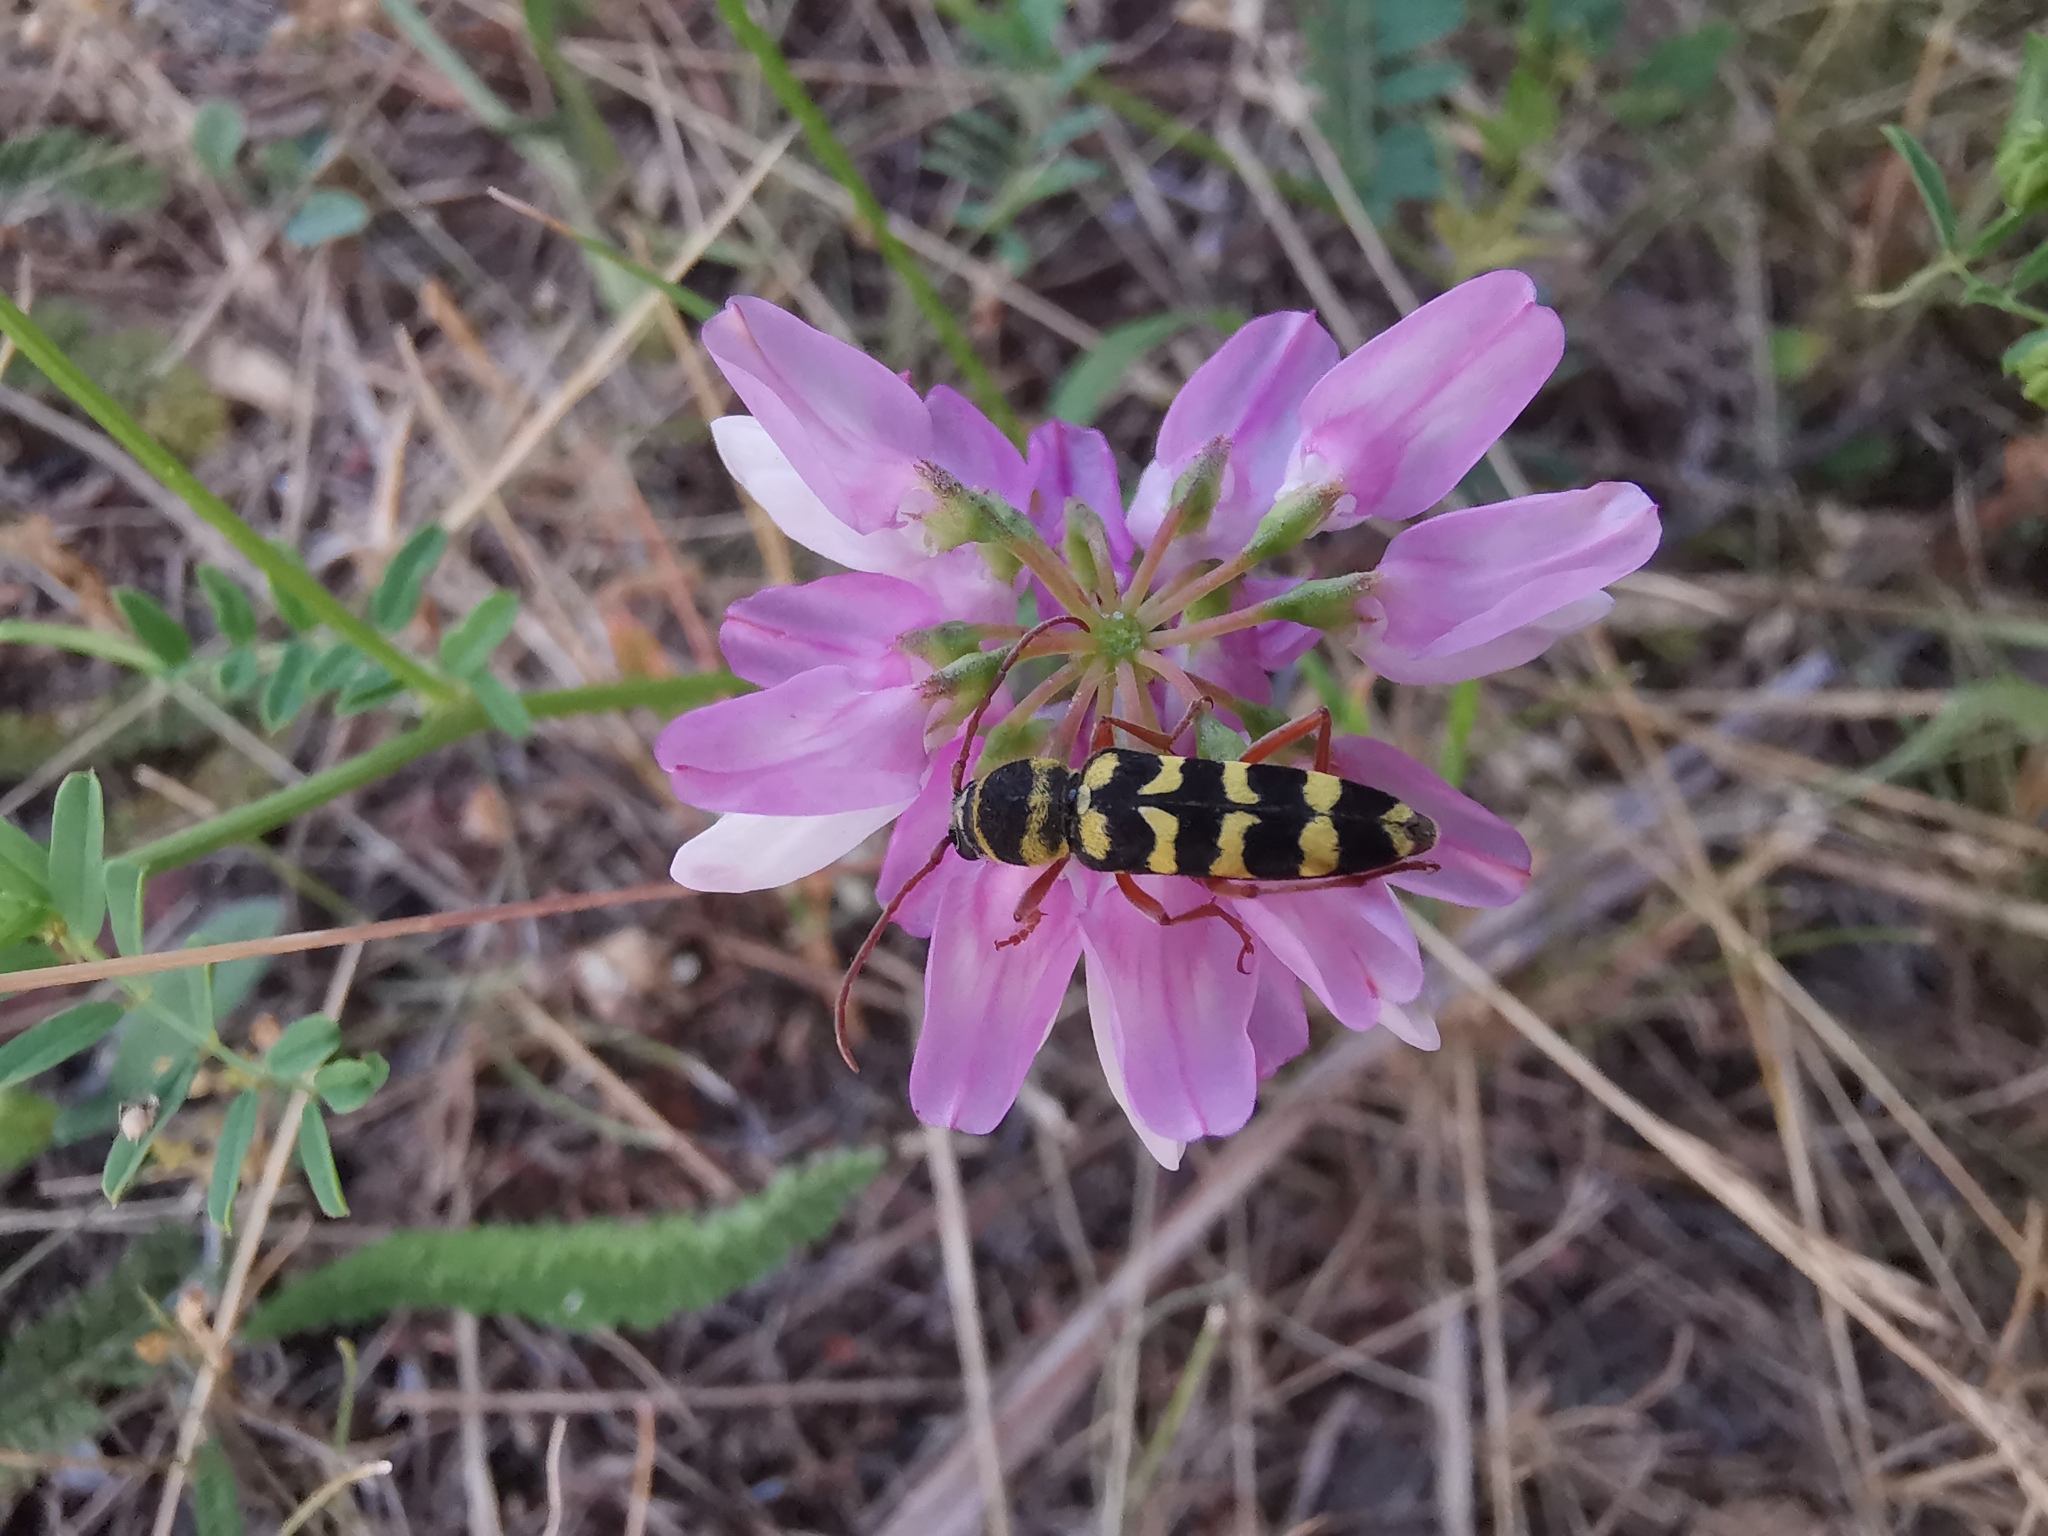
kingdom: Animalia
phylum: Arthropoda
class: Insecta
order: Coleoptera
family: Cerambycidae
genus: Plagionotus
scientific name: Plagionotus floralis
